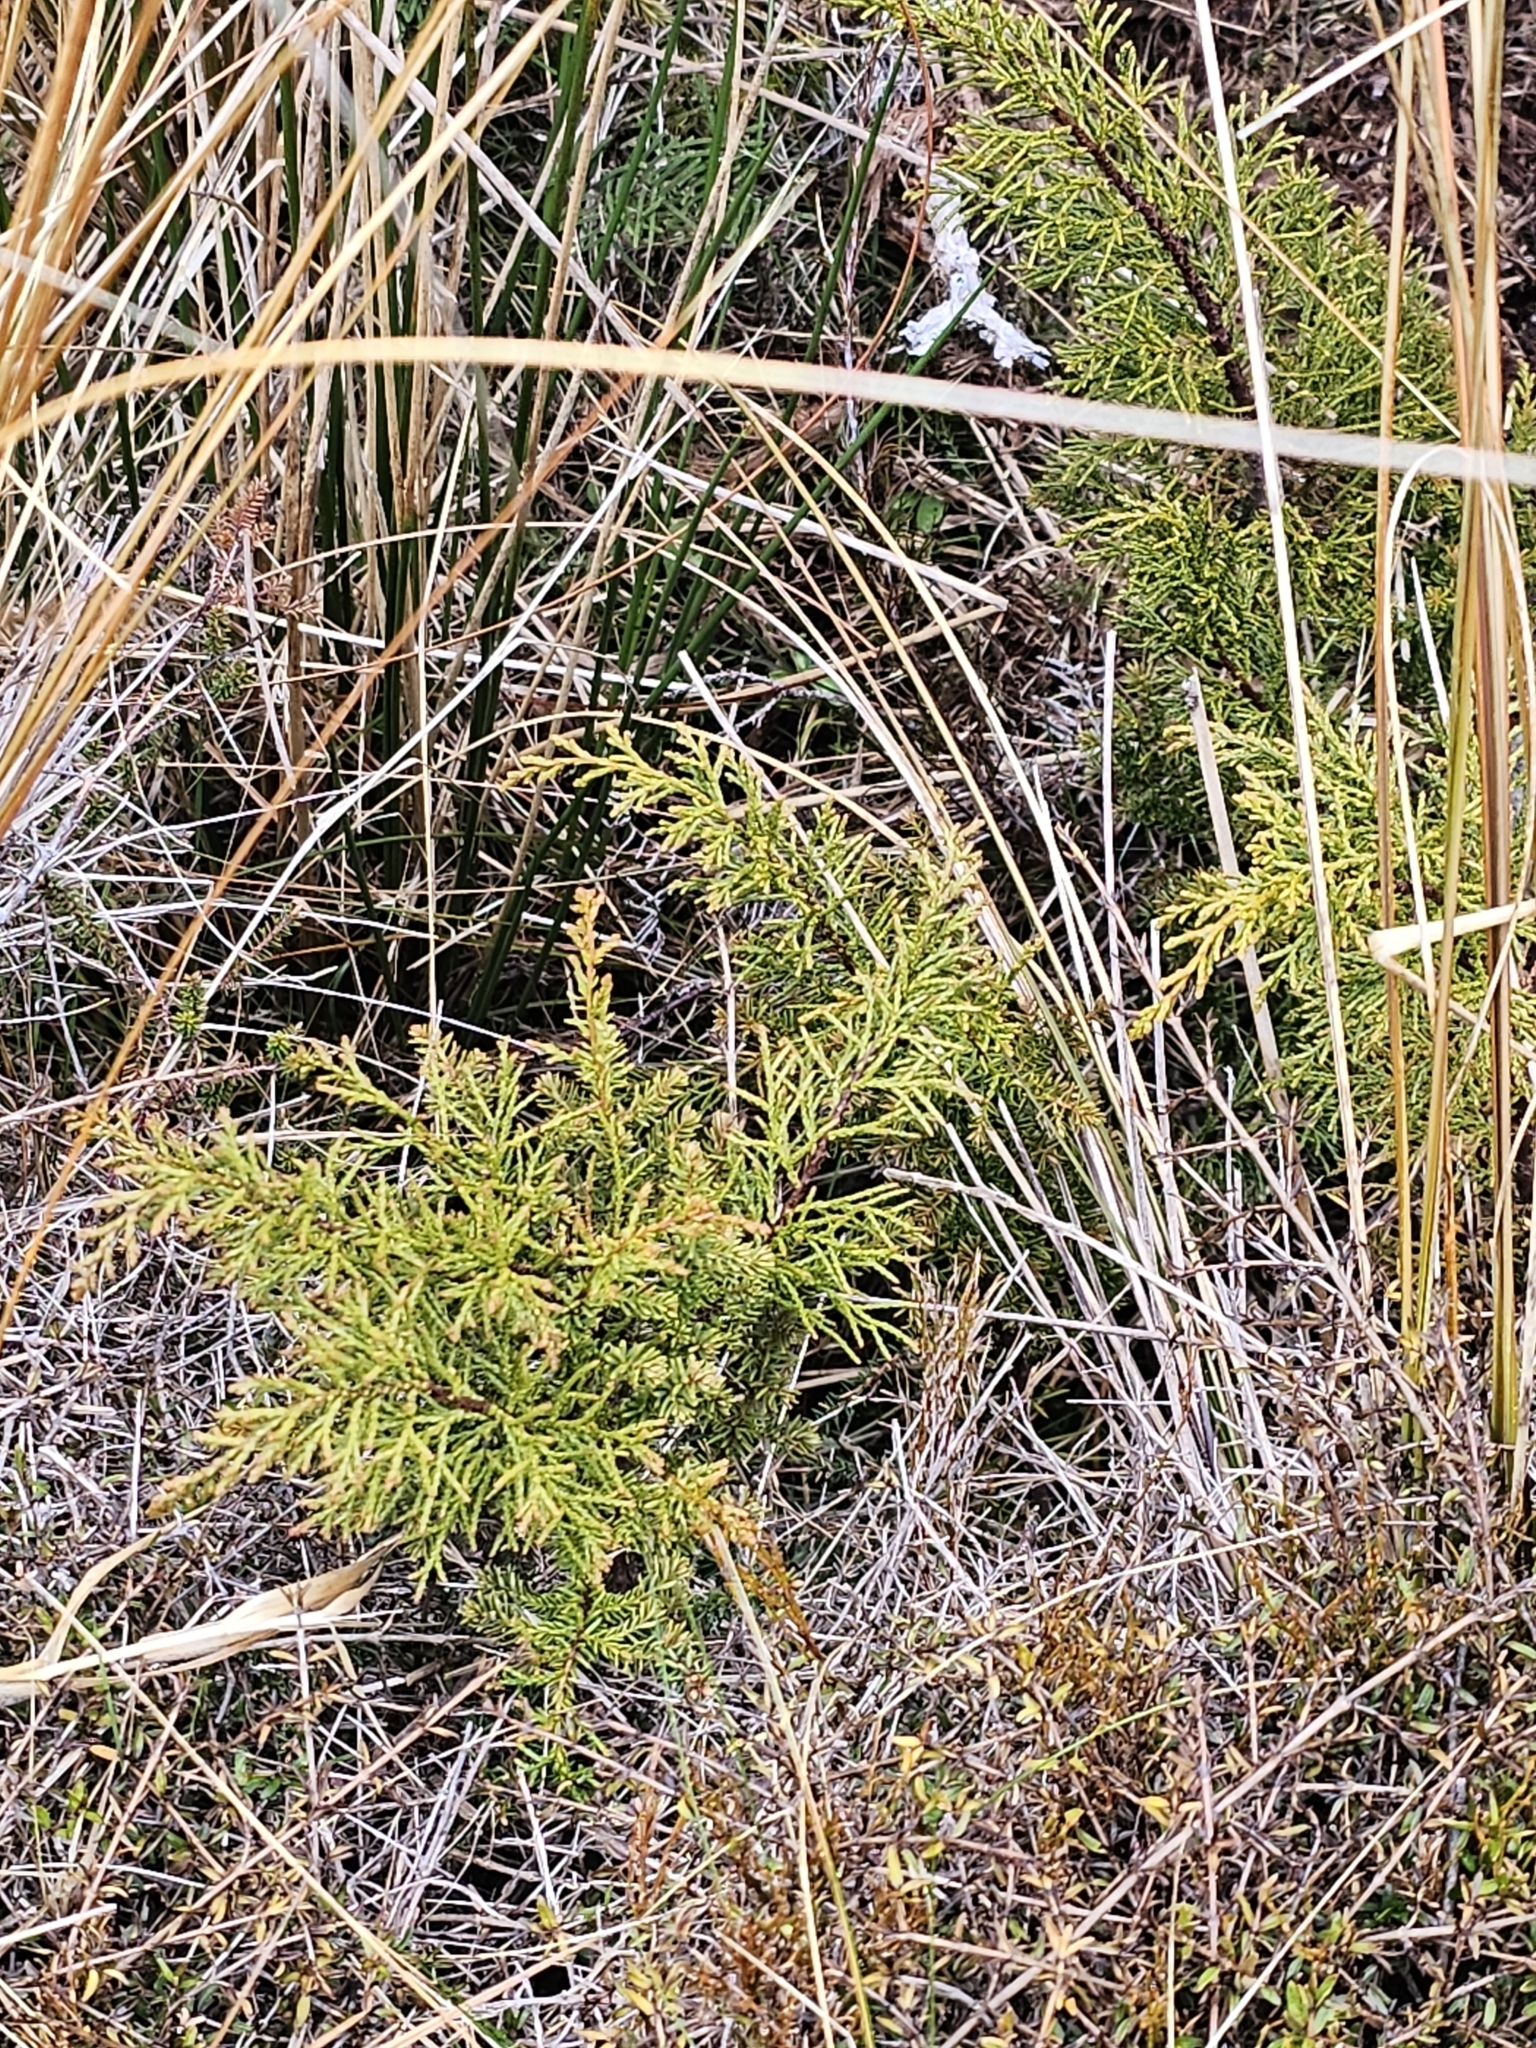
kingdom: Plantae
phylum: Tracheophyta
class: Pinopsida
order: Pinales
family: Podocarpaceae
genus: Halocarpus
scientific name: Halocarpus biformis
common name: Alpine tarwood
